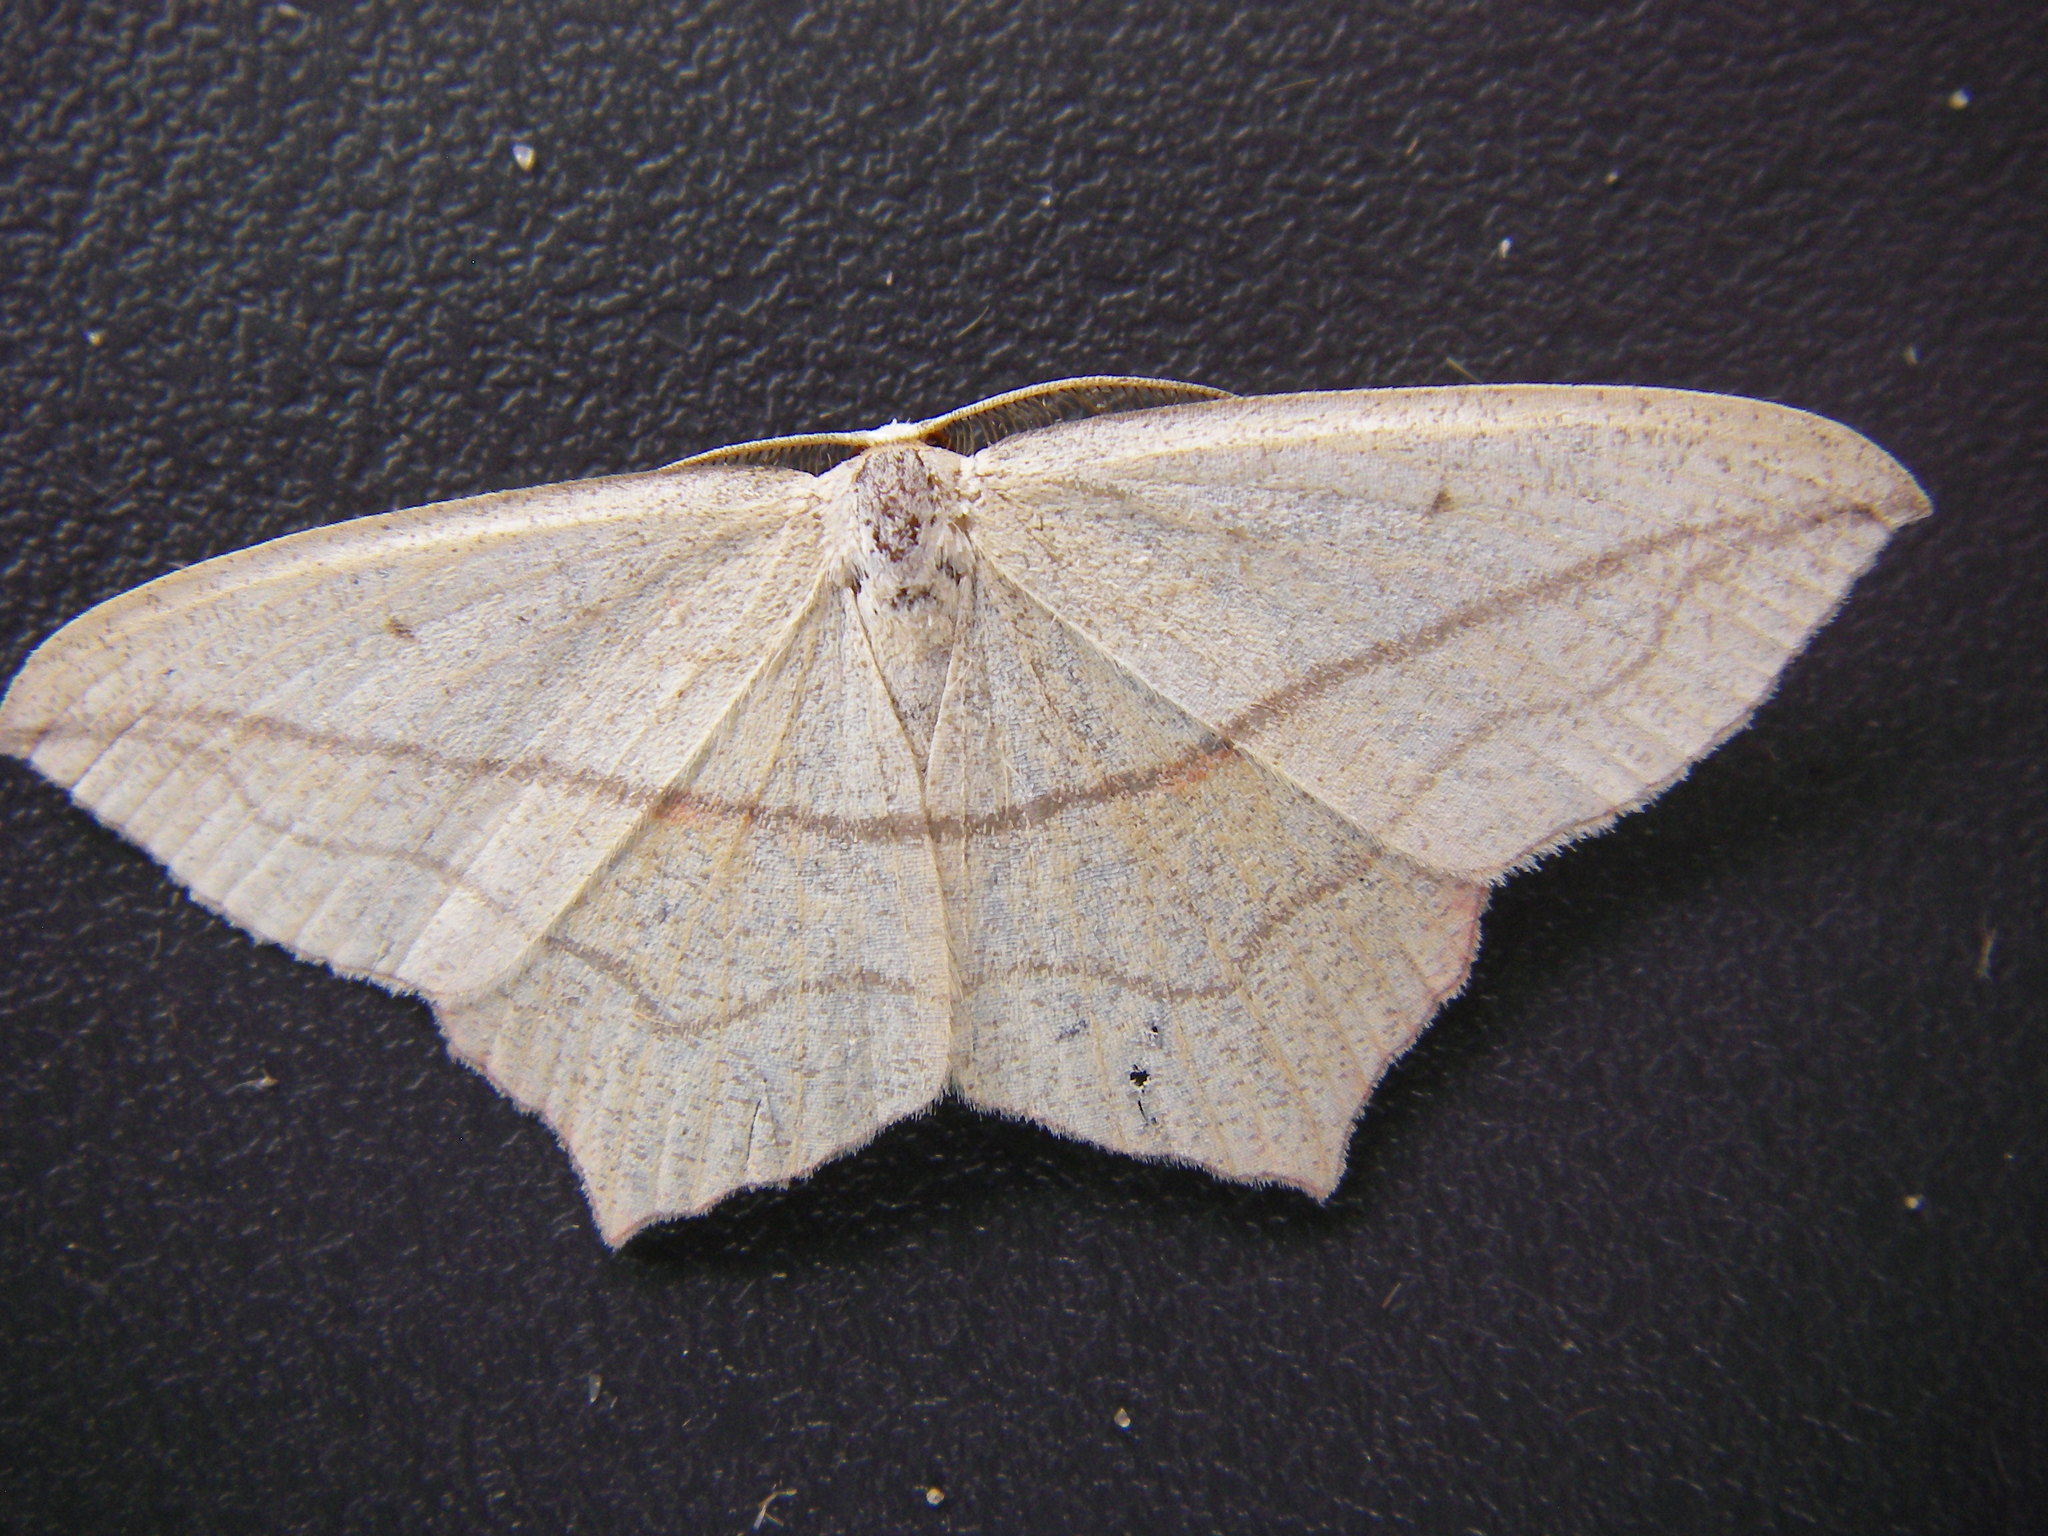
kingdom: Animalia
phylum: Arthropoda
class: Insecta
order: Lepidoptera
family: Geometridae
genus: Timandra
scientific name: Timandra comae
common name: Blood-vein
